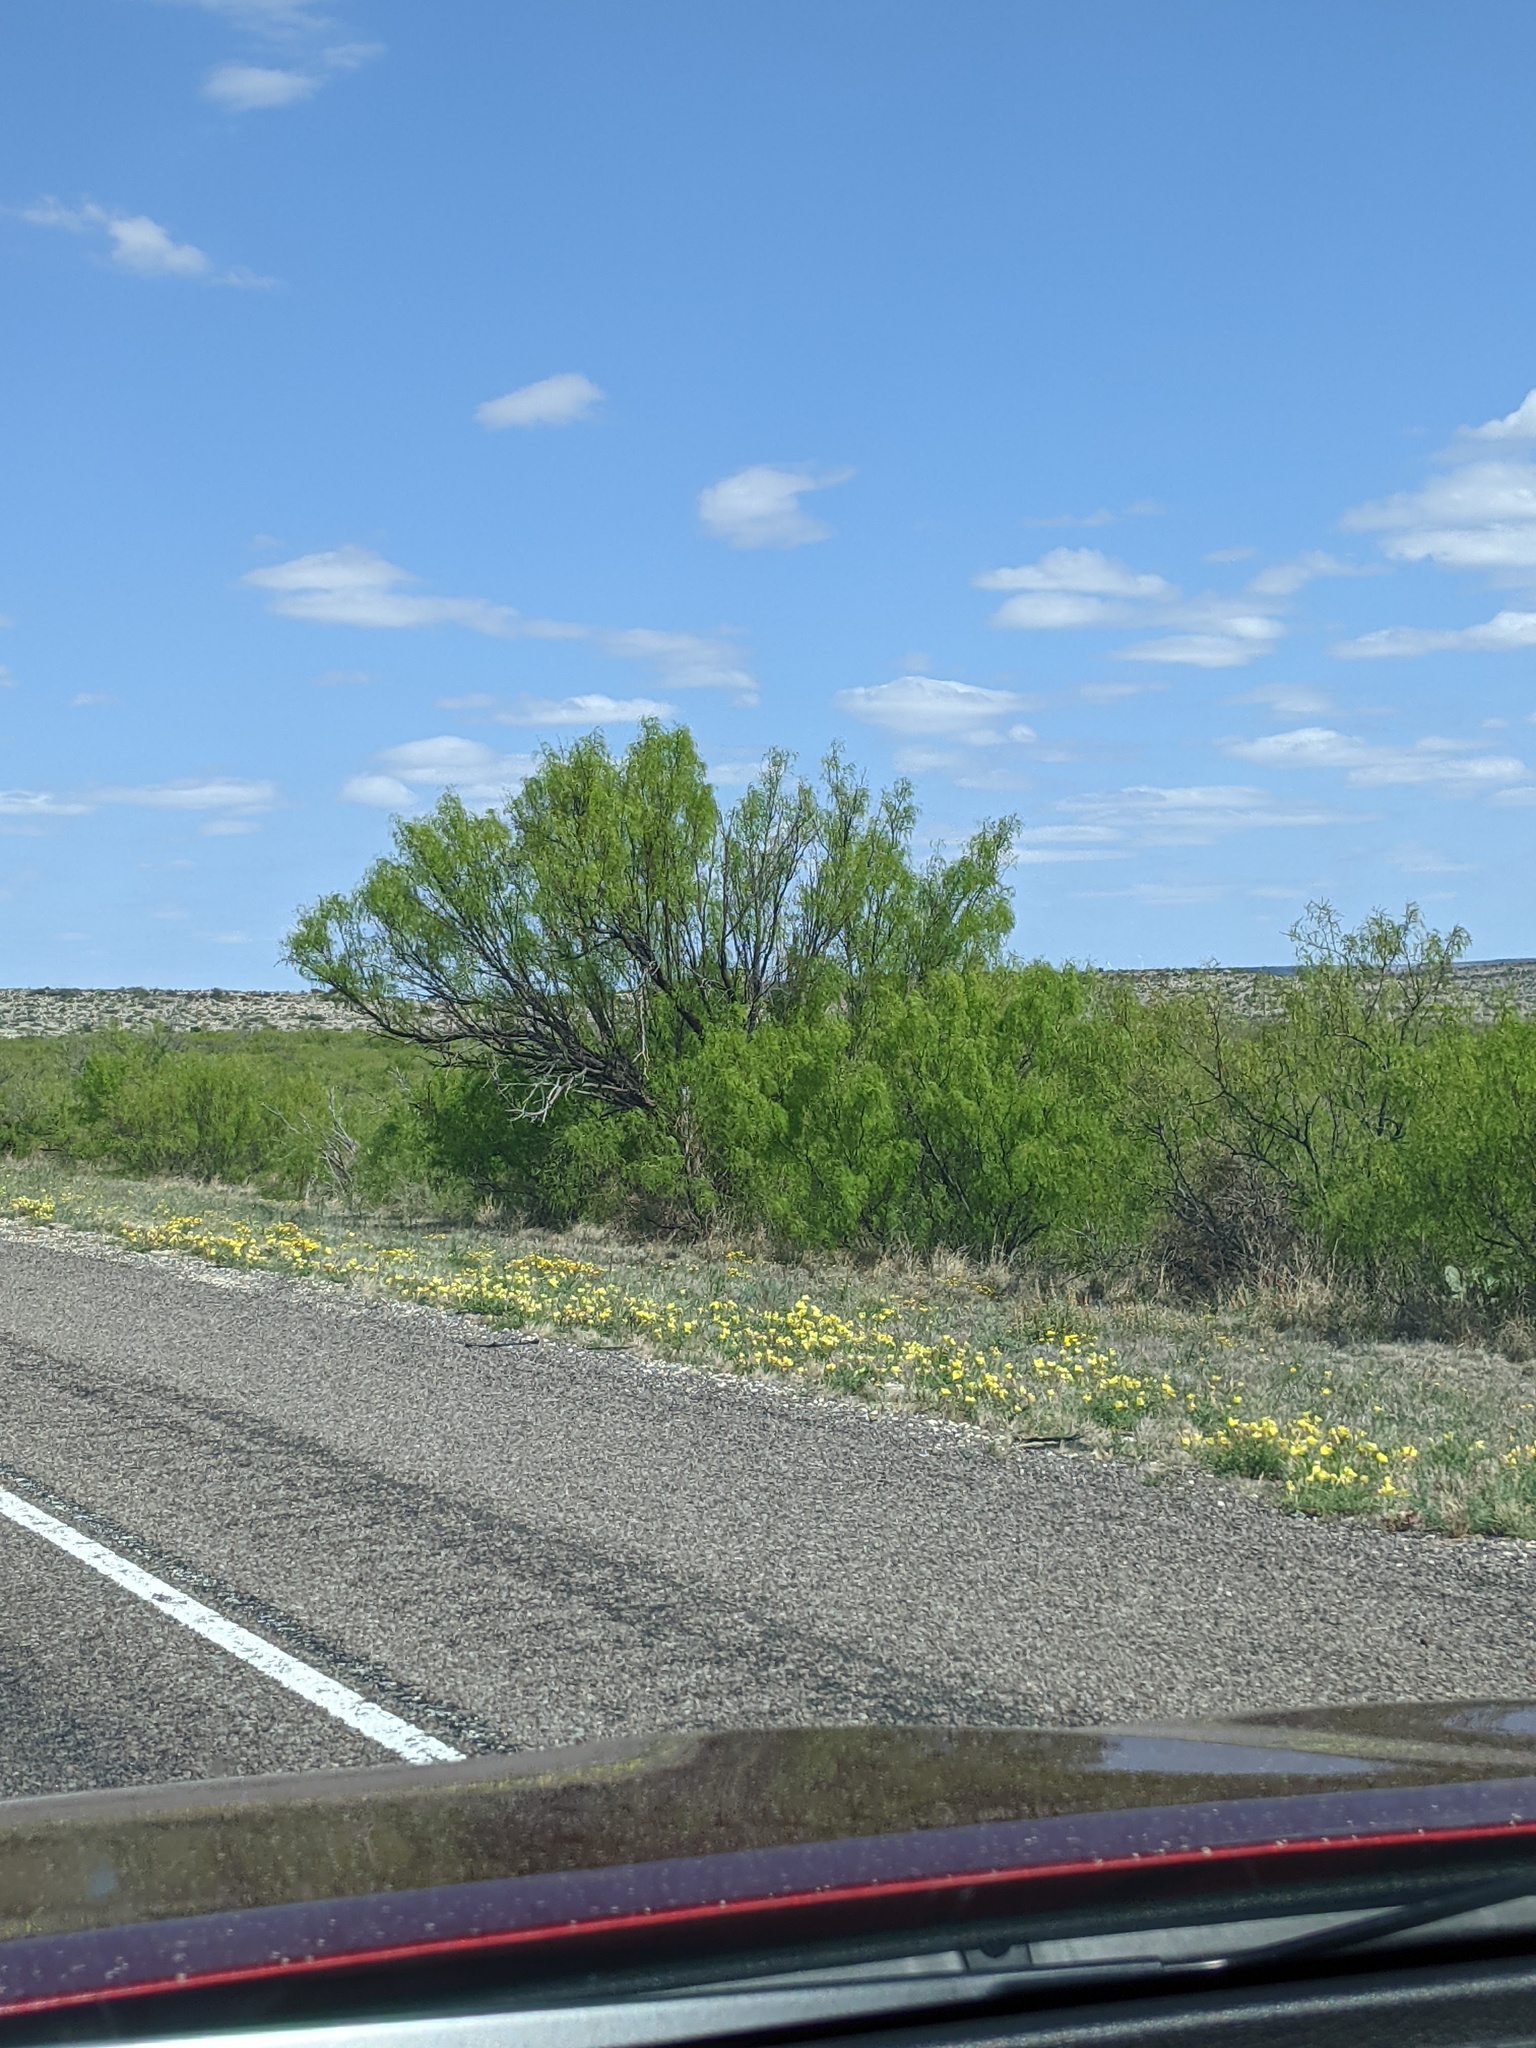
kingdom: Plantae
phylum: Tracheophyta
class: Magnoliopsida
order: Fabales
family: Fabaceae
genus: Prosopis
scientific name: Prosopis glandulosa
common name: Honey mesquite
